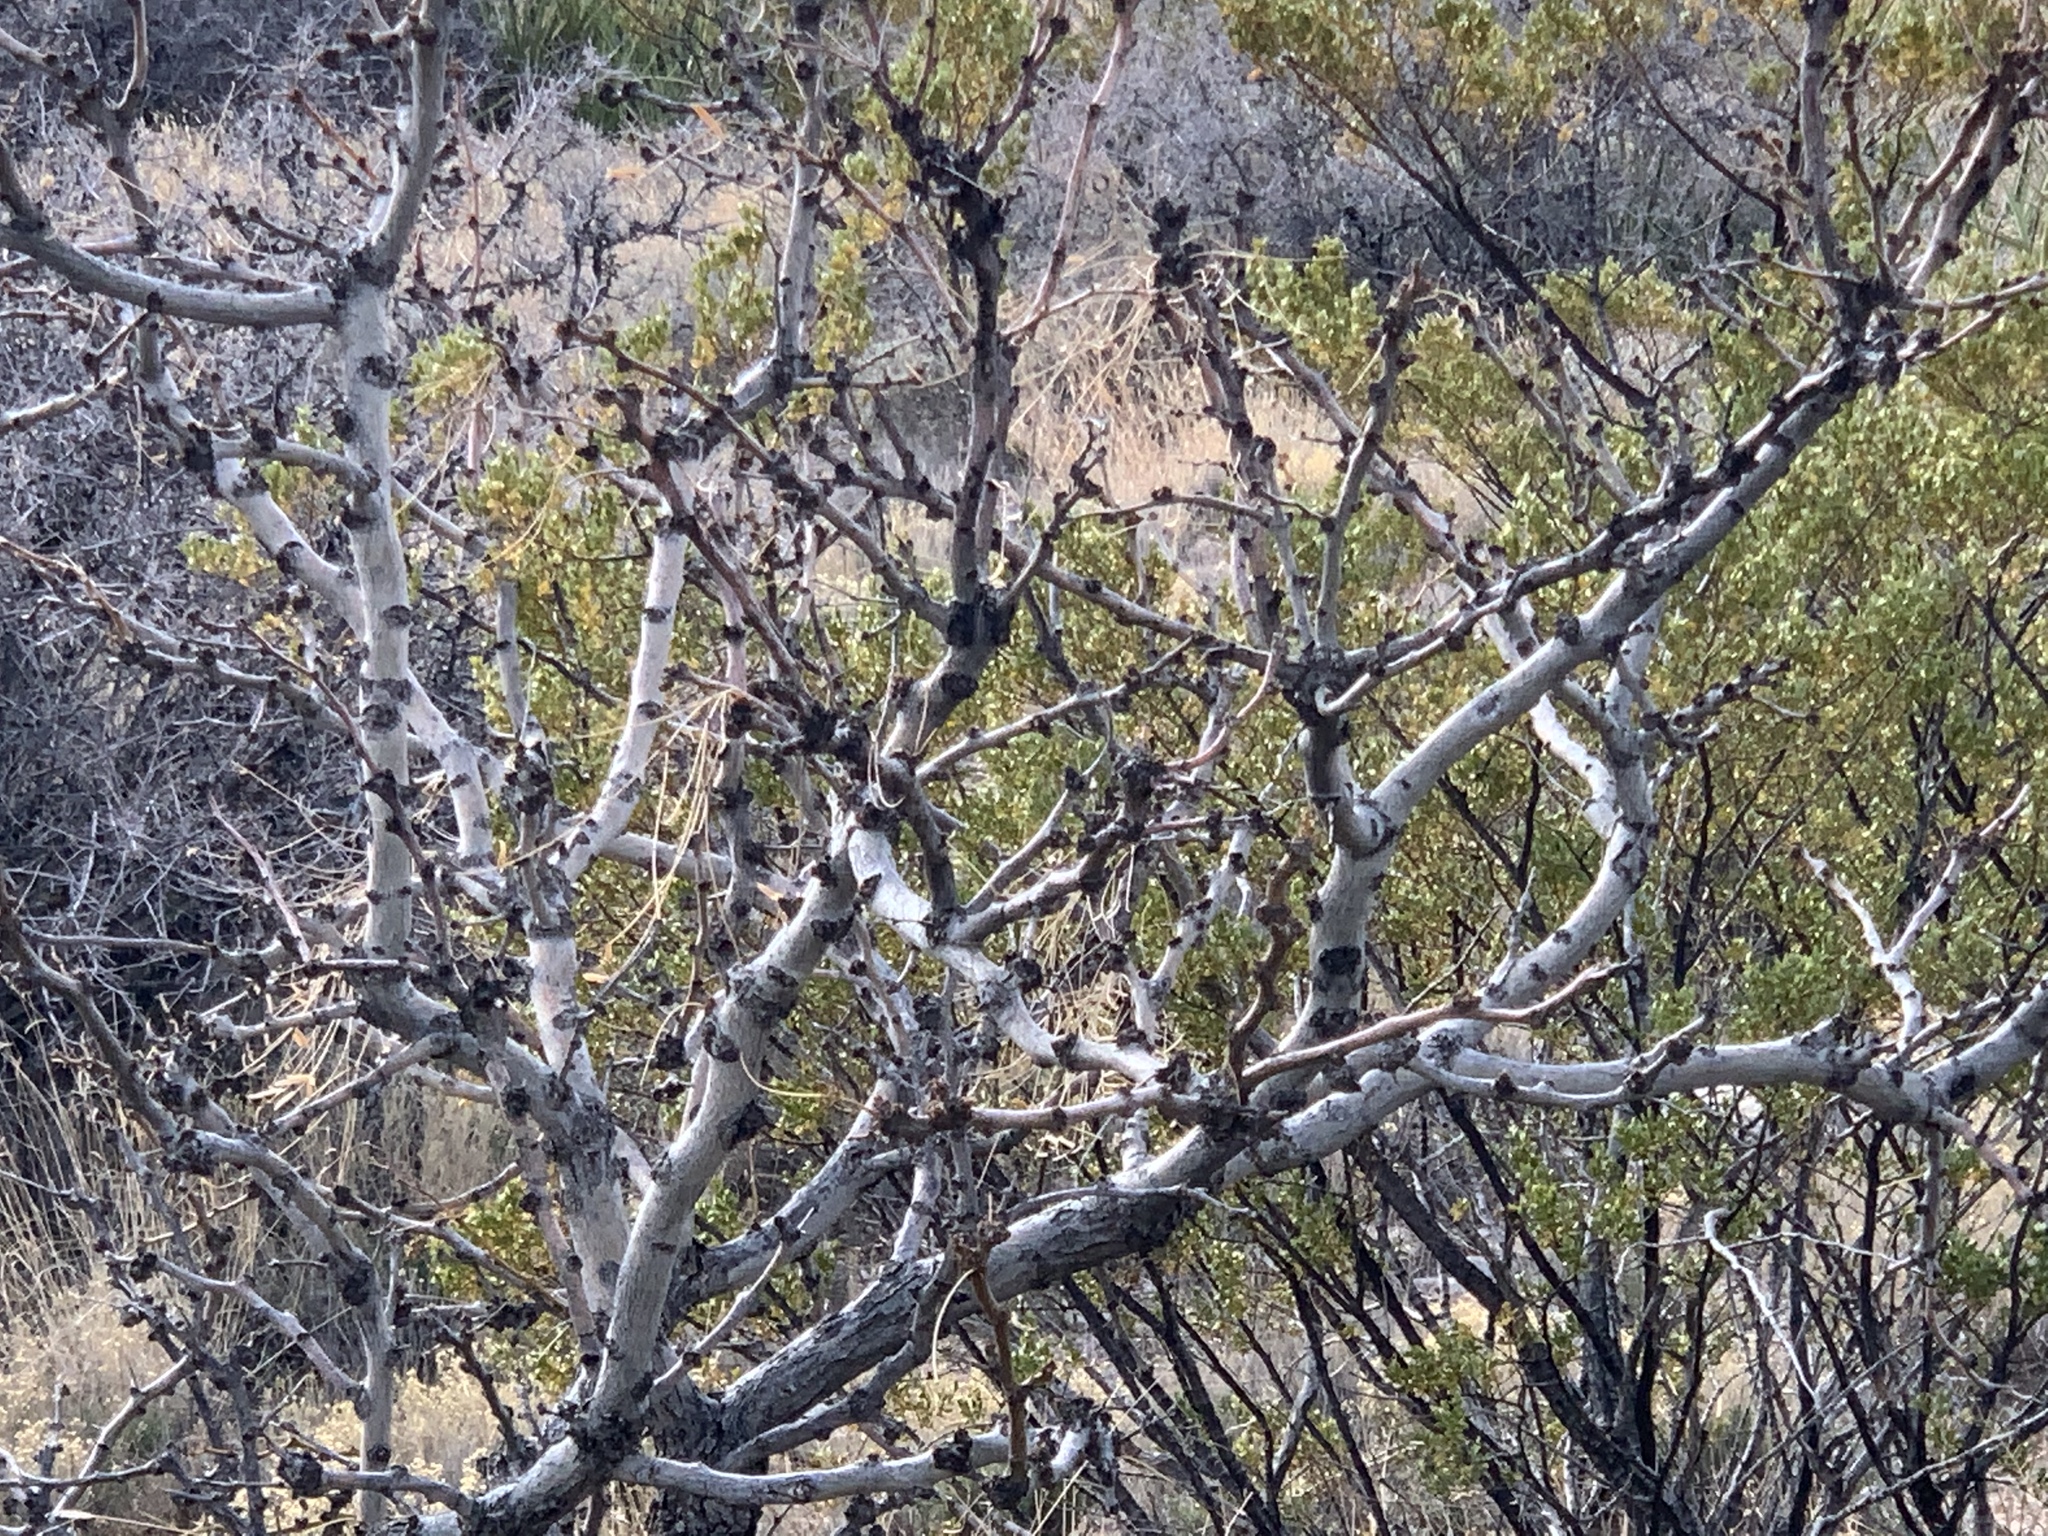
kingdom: Plantae
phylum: Tracheophyta
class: Magnoliopsida
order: Fabales
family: Fabaceae
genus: Prosopis
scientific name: Prosopis glandulosa
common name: Honey mesquite
